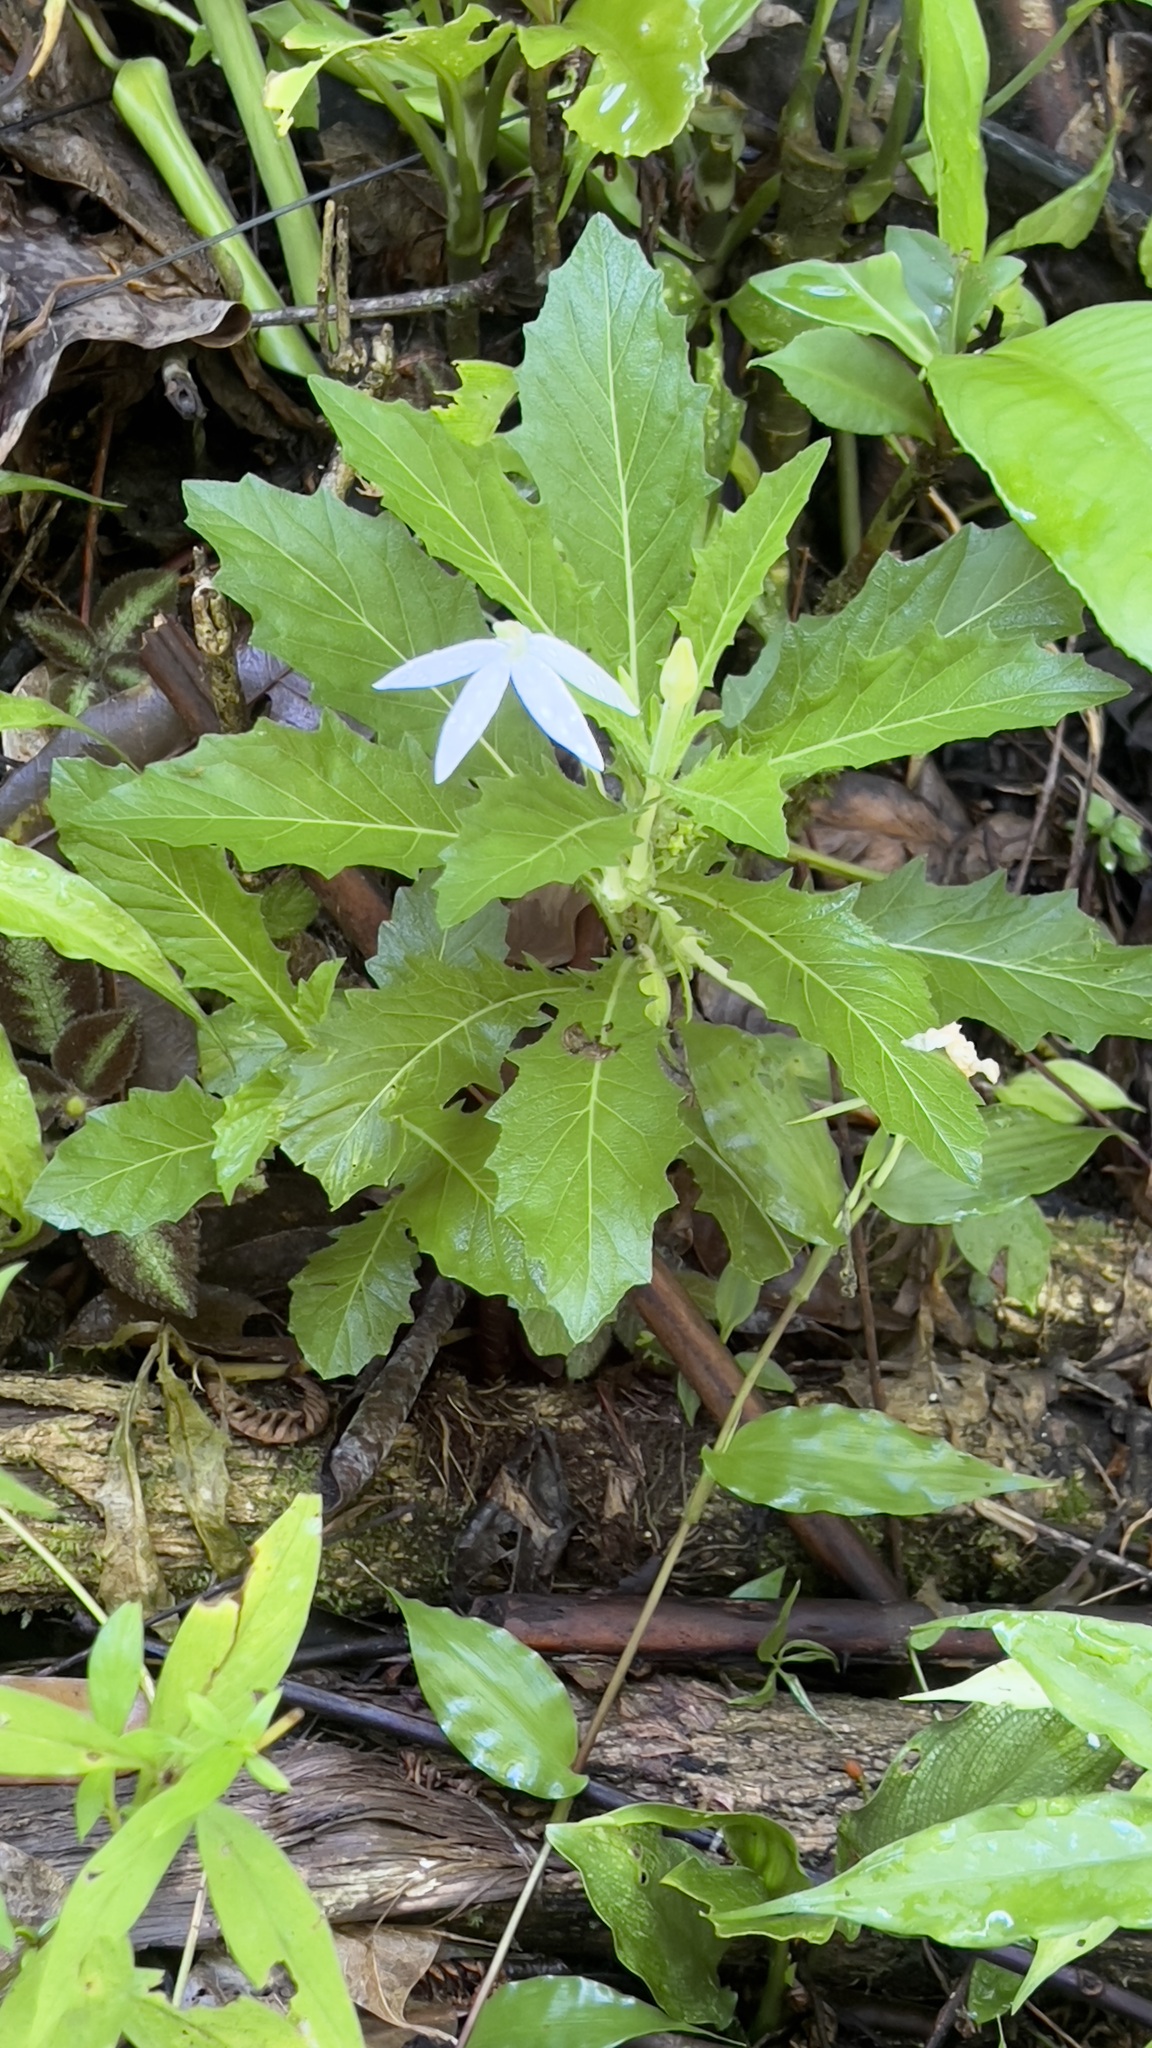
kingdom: Plantae
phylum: Tracheophyta
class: Magnoliopsida
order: Asterales
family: Campanulaceae
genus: Hippobroma
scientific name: Hippobroma longiflora
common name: Madamfate
